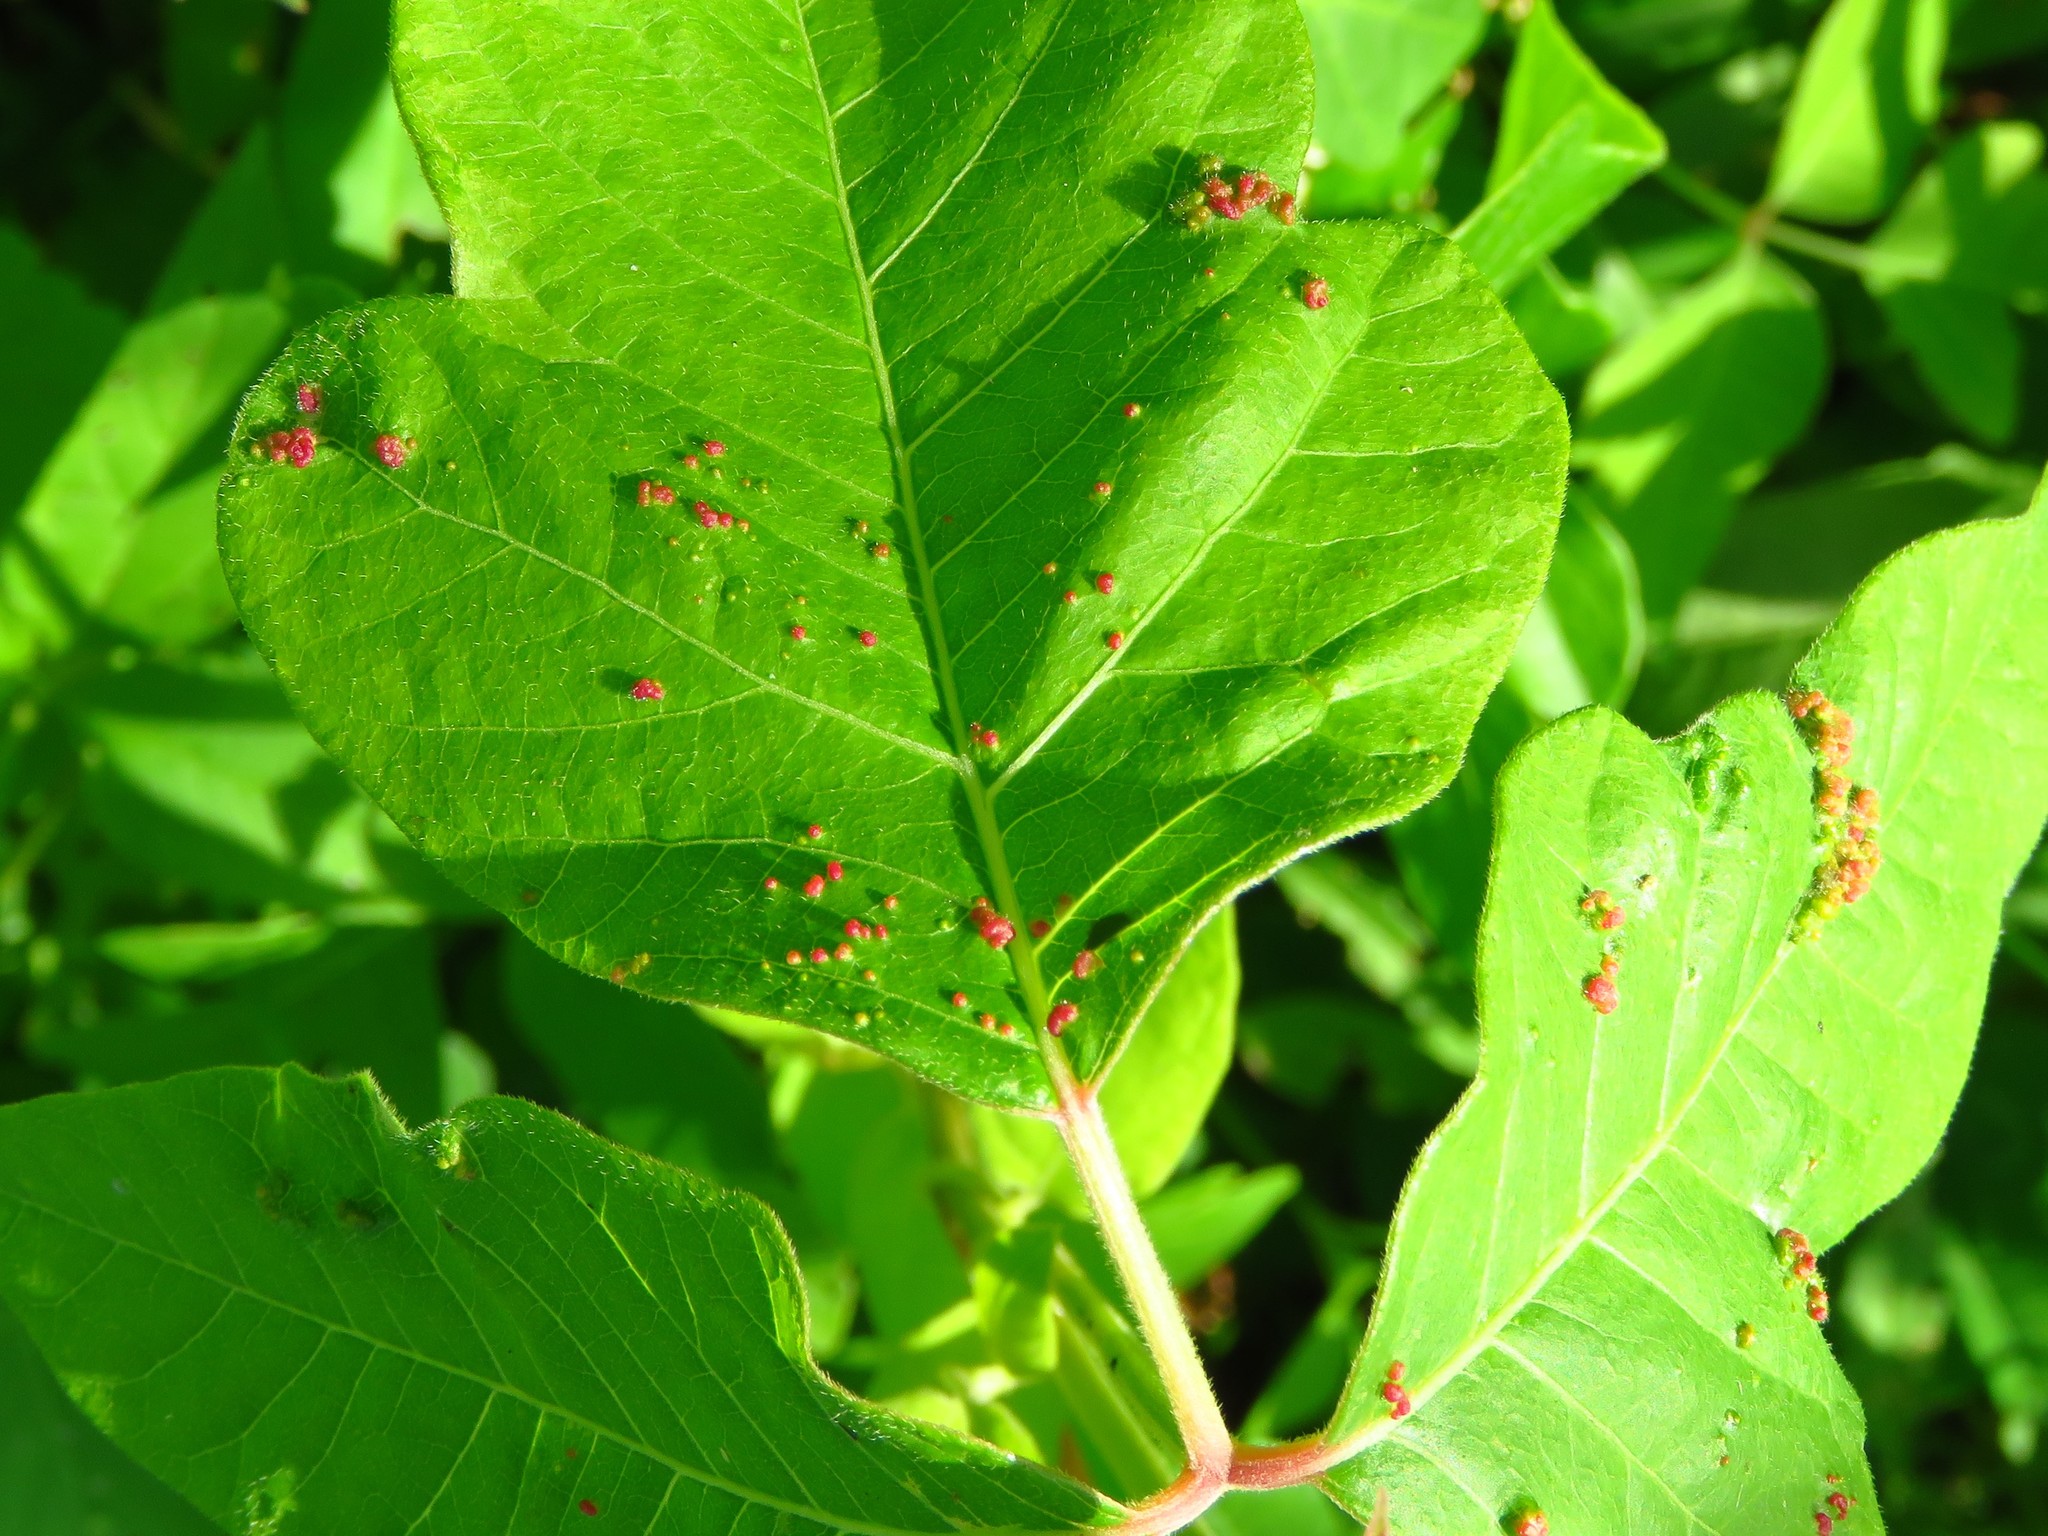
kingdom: Animalia
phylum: Arthropoda
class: Arachnida
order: Trombidiformes
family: Eriophyidae
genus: Aculops
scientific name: Aculops
